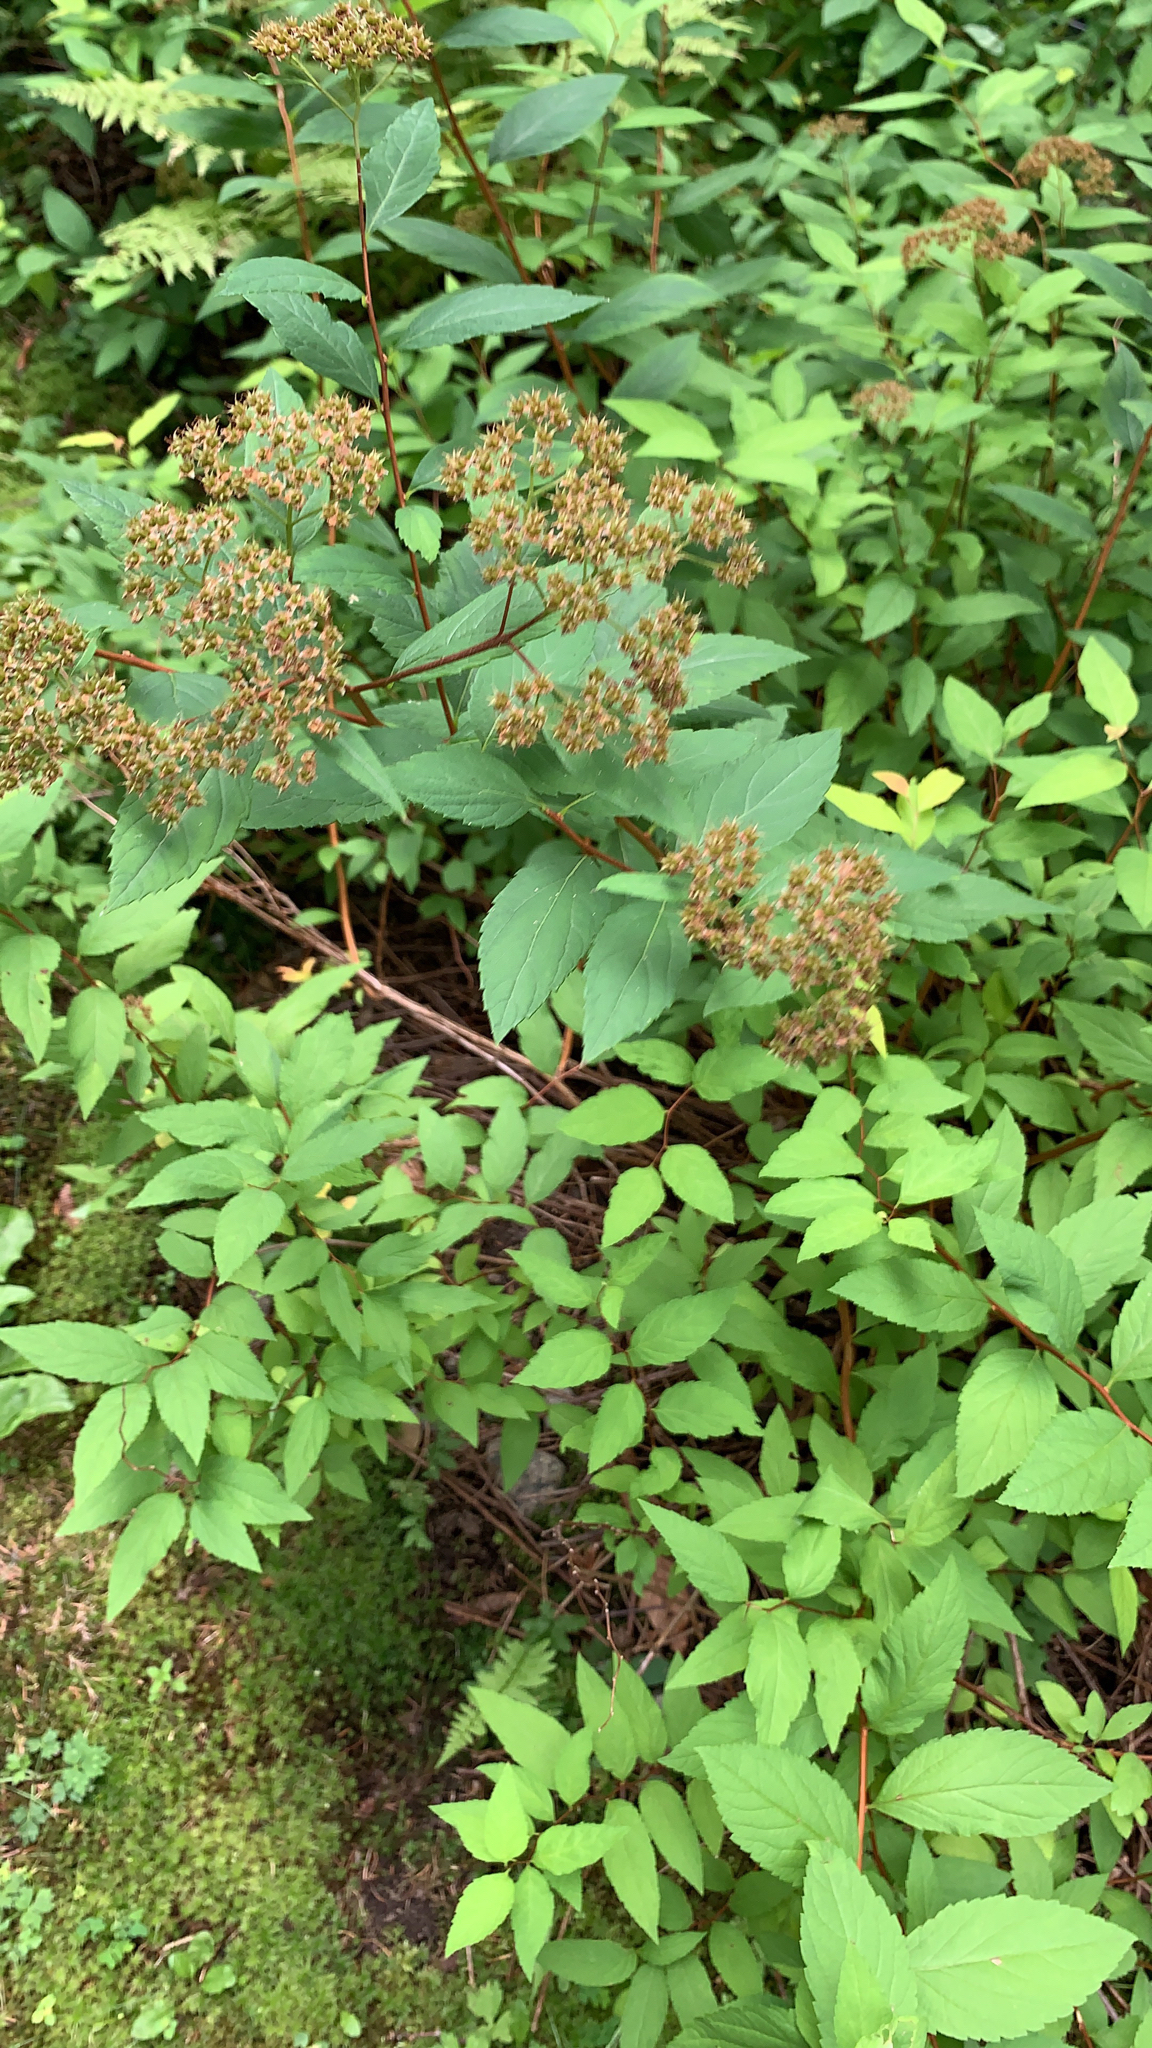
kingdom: Plantae
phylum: Tracheophyta
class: Magnoliopsida
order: Rosales
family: Rosaceae
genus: Spiraea
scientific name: Spiraea japonica
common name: Japanese spiraea
